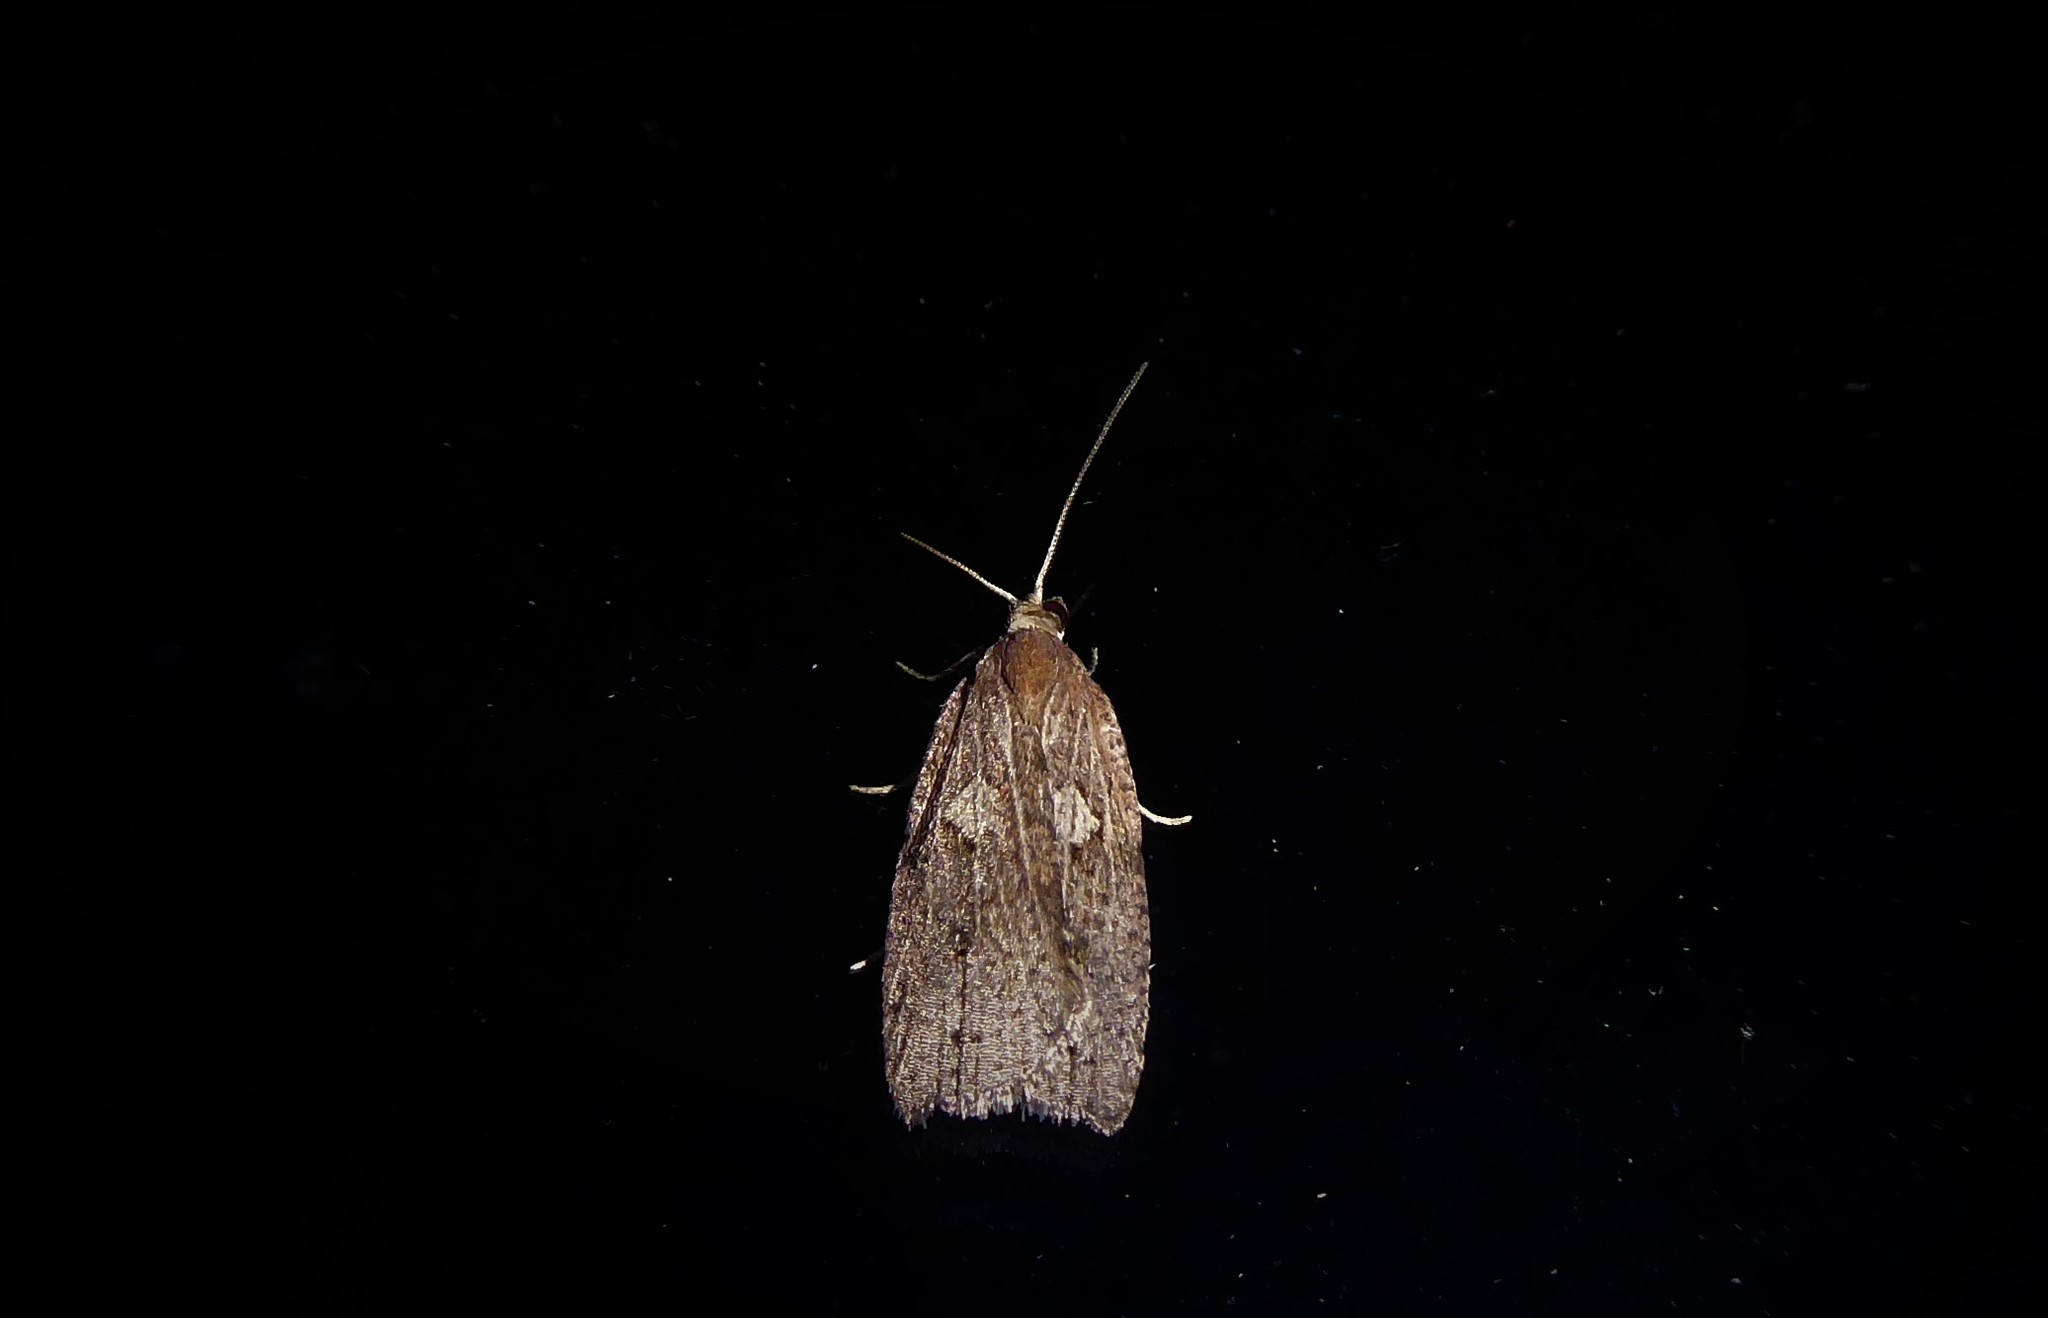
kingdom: Animalia
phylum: Arthropoda
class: Insecta
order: Lepidoptera
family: Tortricidae
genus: Planotortrix
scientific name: Planotortrix notophaea
